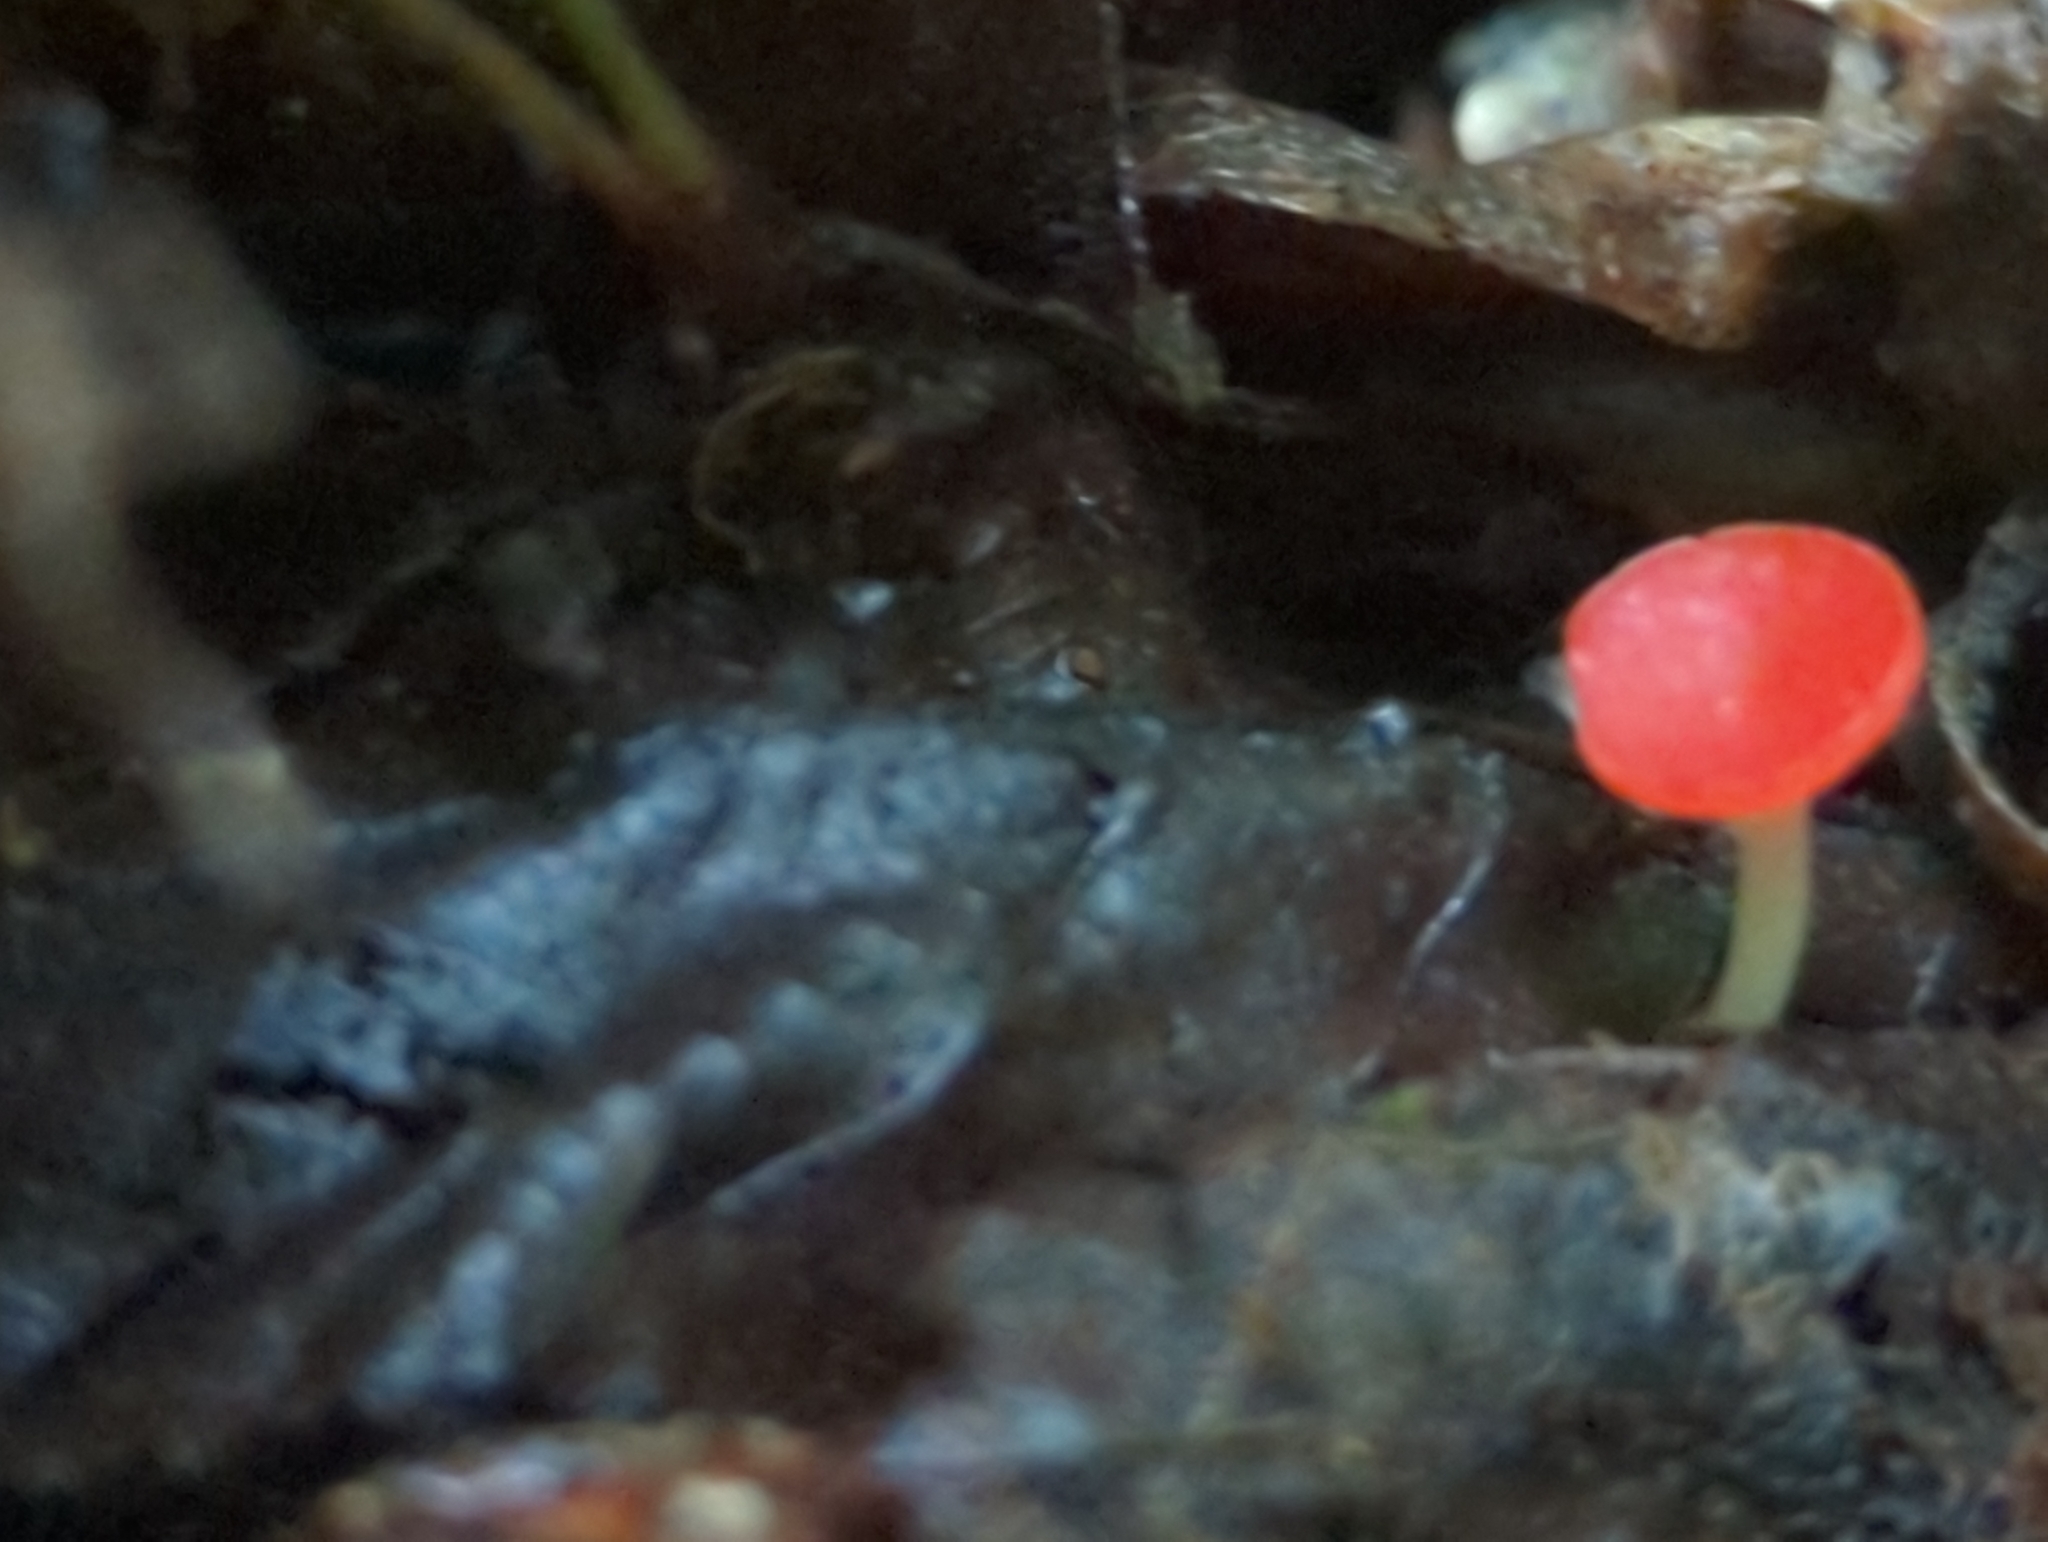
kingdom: Fungi
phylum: Ascomycota
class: Pezizomycetes
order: Pezizales
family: Sarcoscyphaceae
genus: Sarcoscypha
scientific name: Sarcoscypha occidentalis
